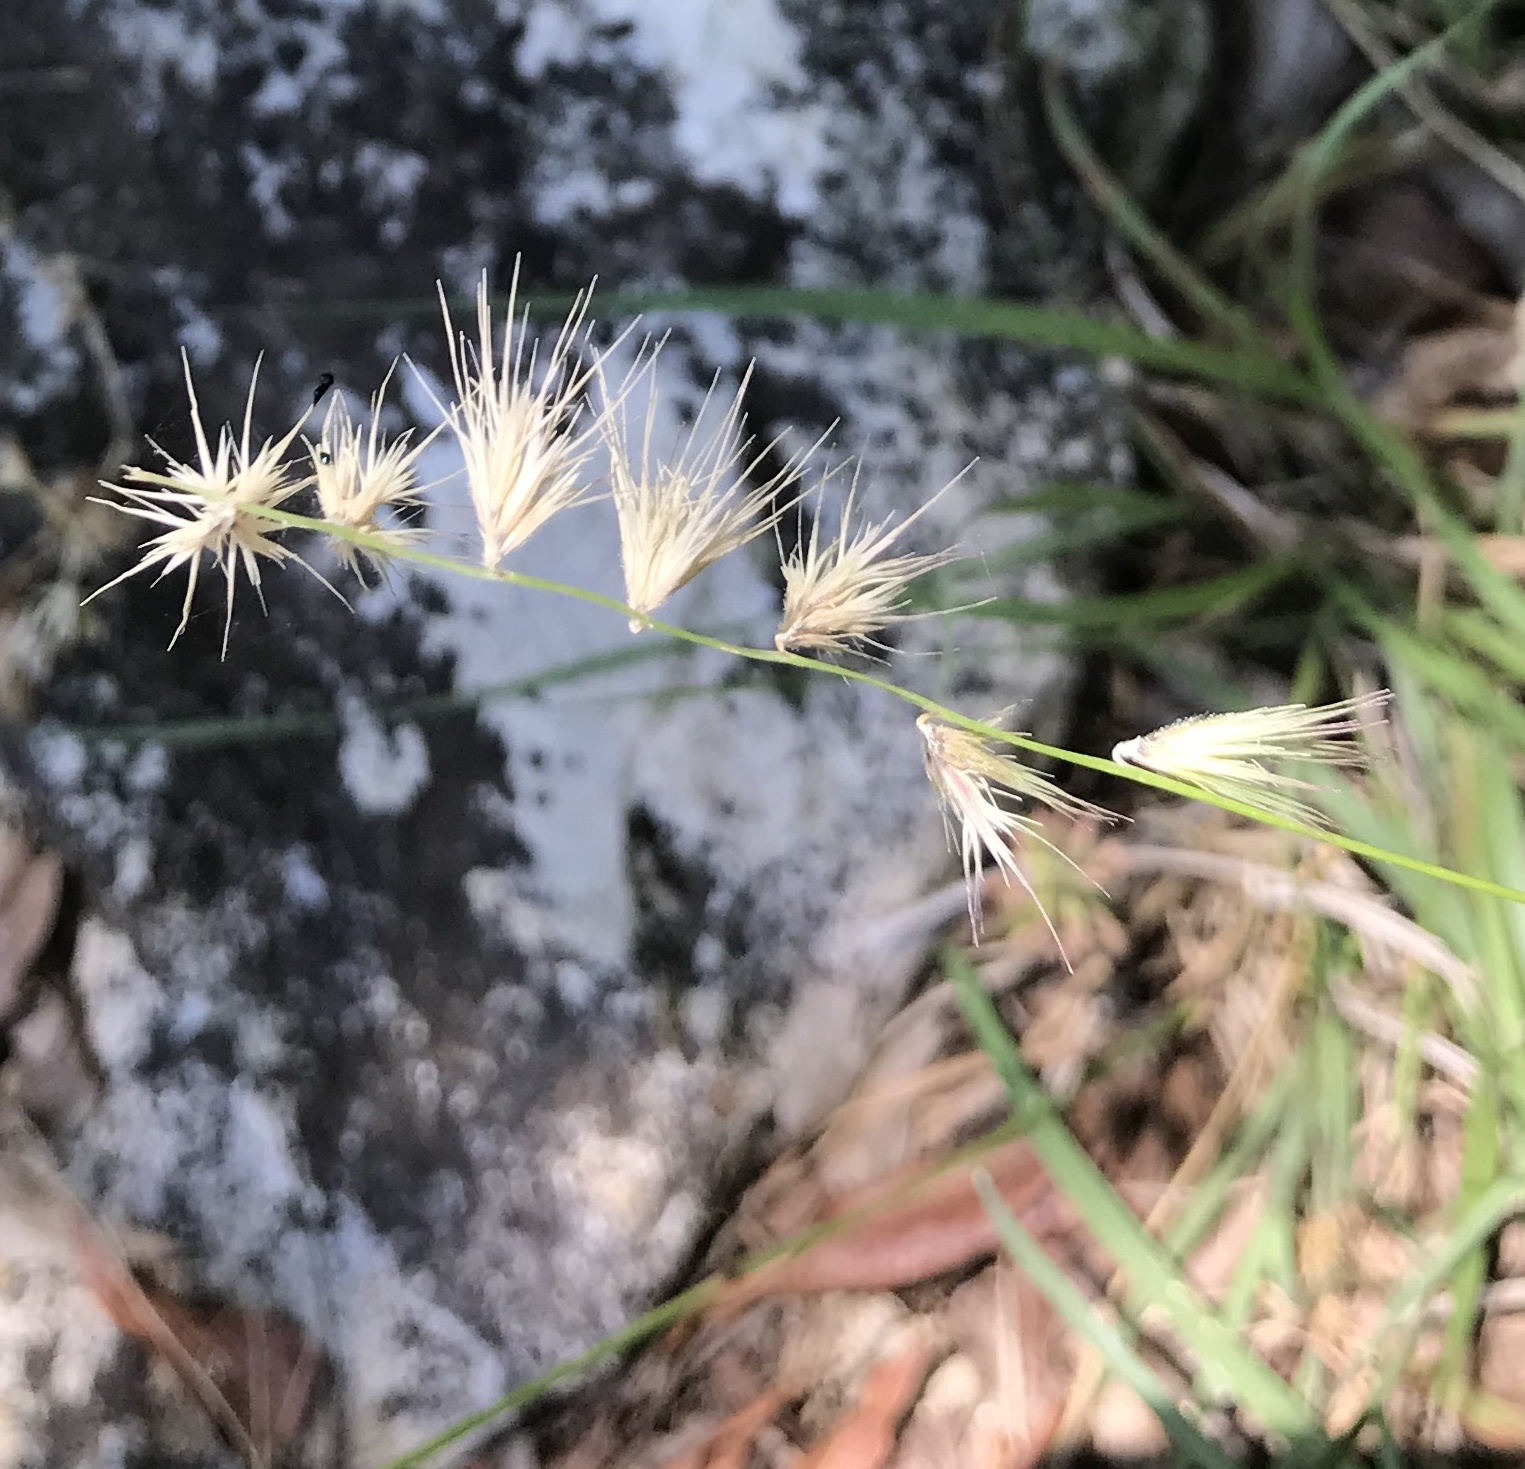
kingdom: Plantae
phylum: Tracheophyta
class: Liliopsida
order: Poales
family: Poaceae
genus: Bouteloua
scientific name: Bouteloua rigidiseta
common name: Texas grama
